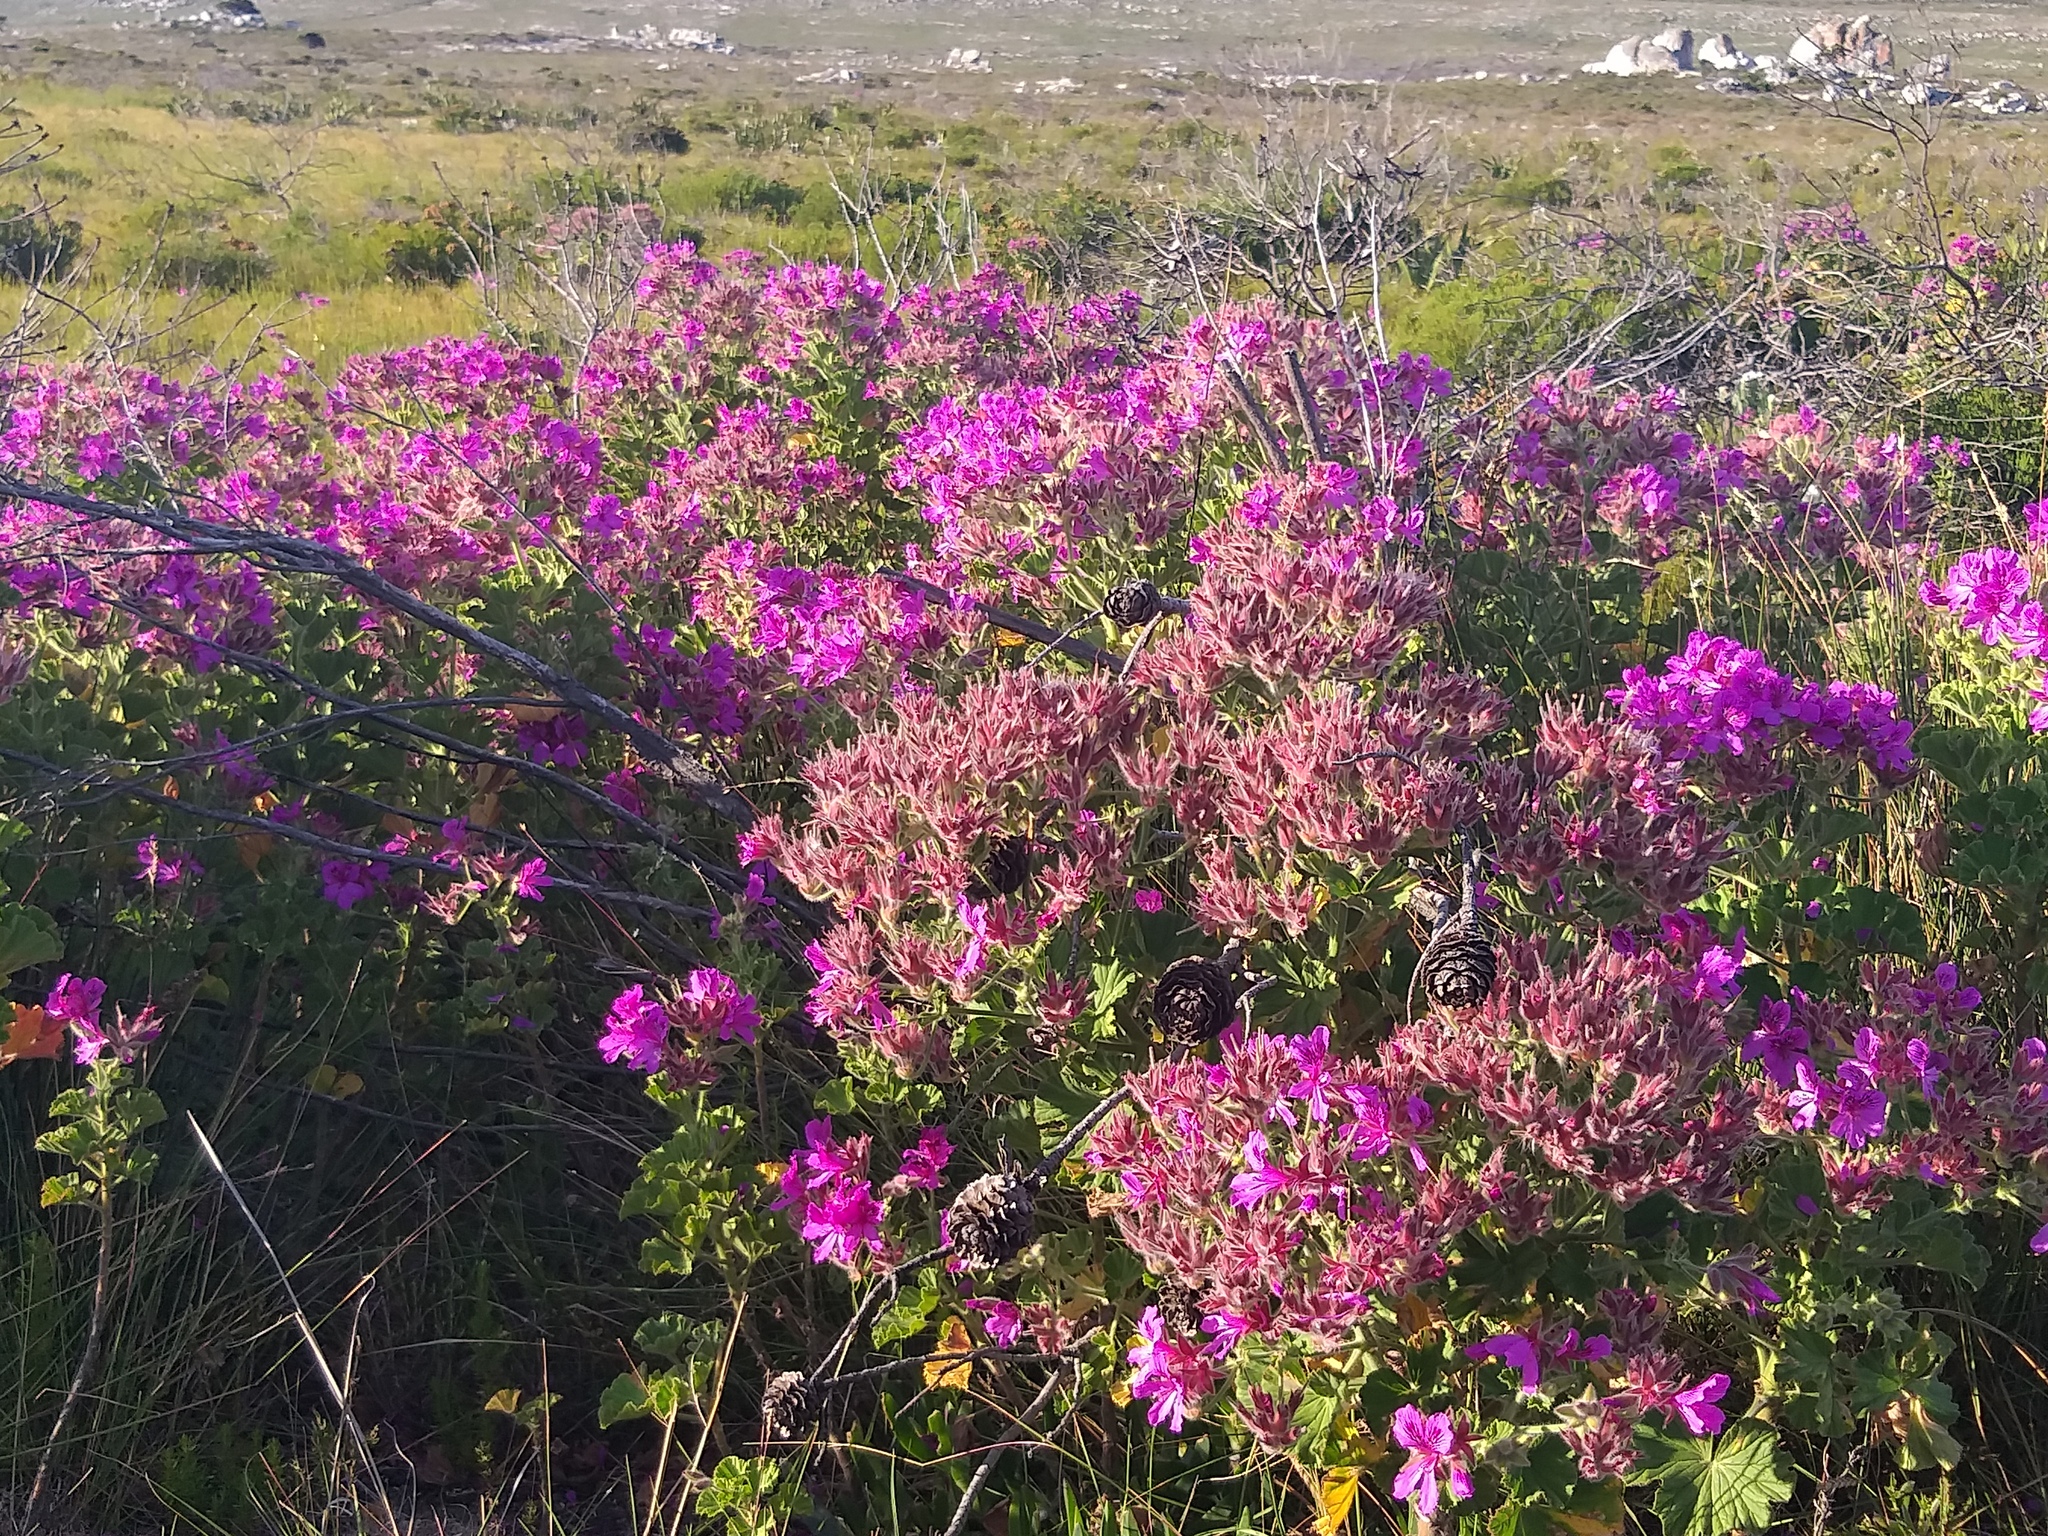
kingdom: Plantae
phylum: Tracheophyta
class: Magnoliopsida
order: Geraniales
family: Geraniaceae
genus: Pelargonium
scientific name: Pelargonium cucullatum
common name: Tree pelargonium
